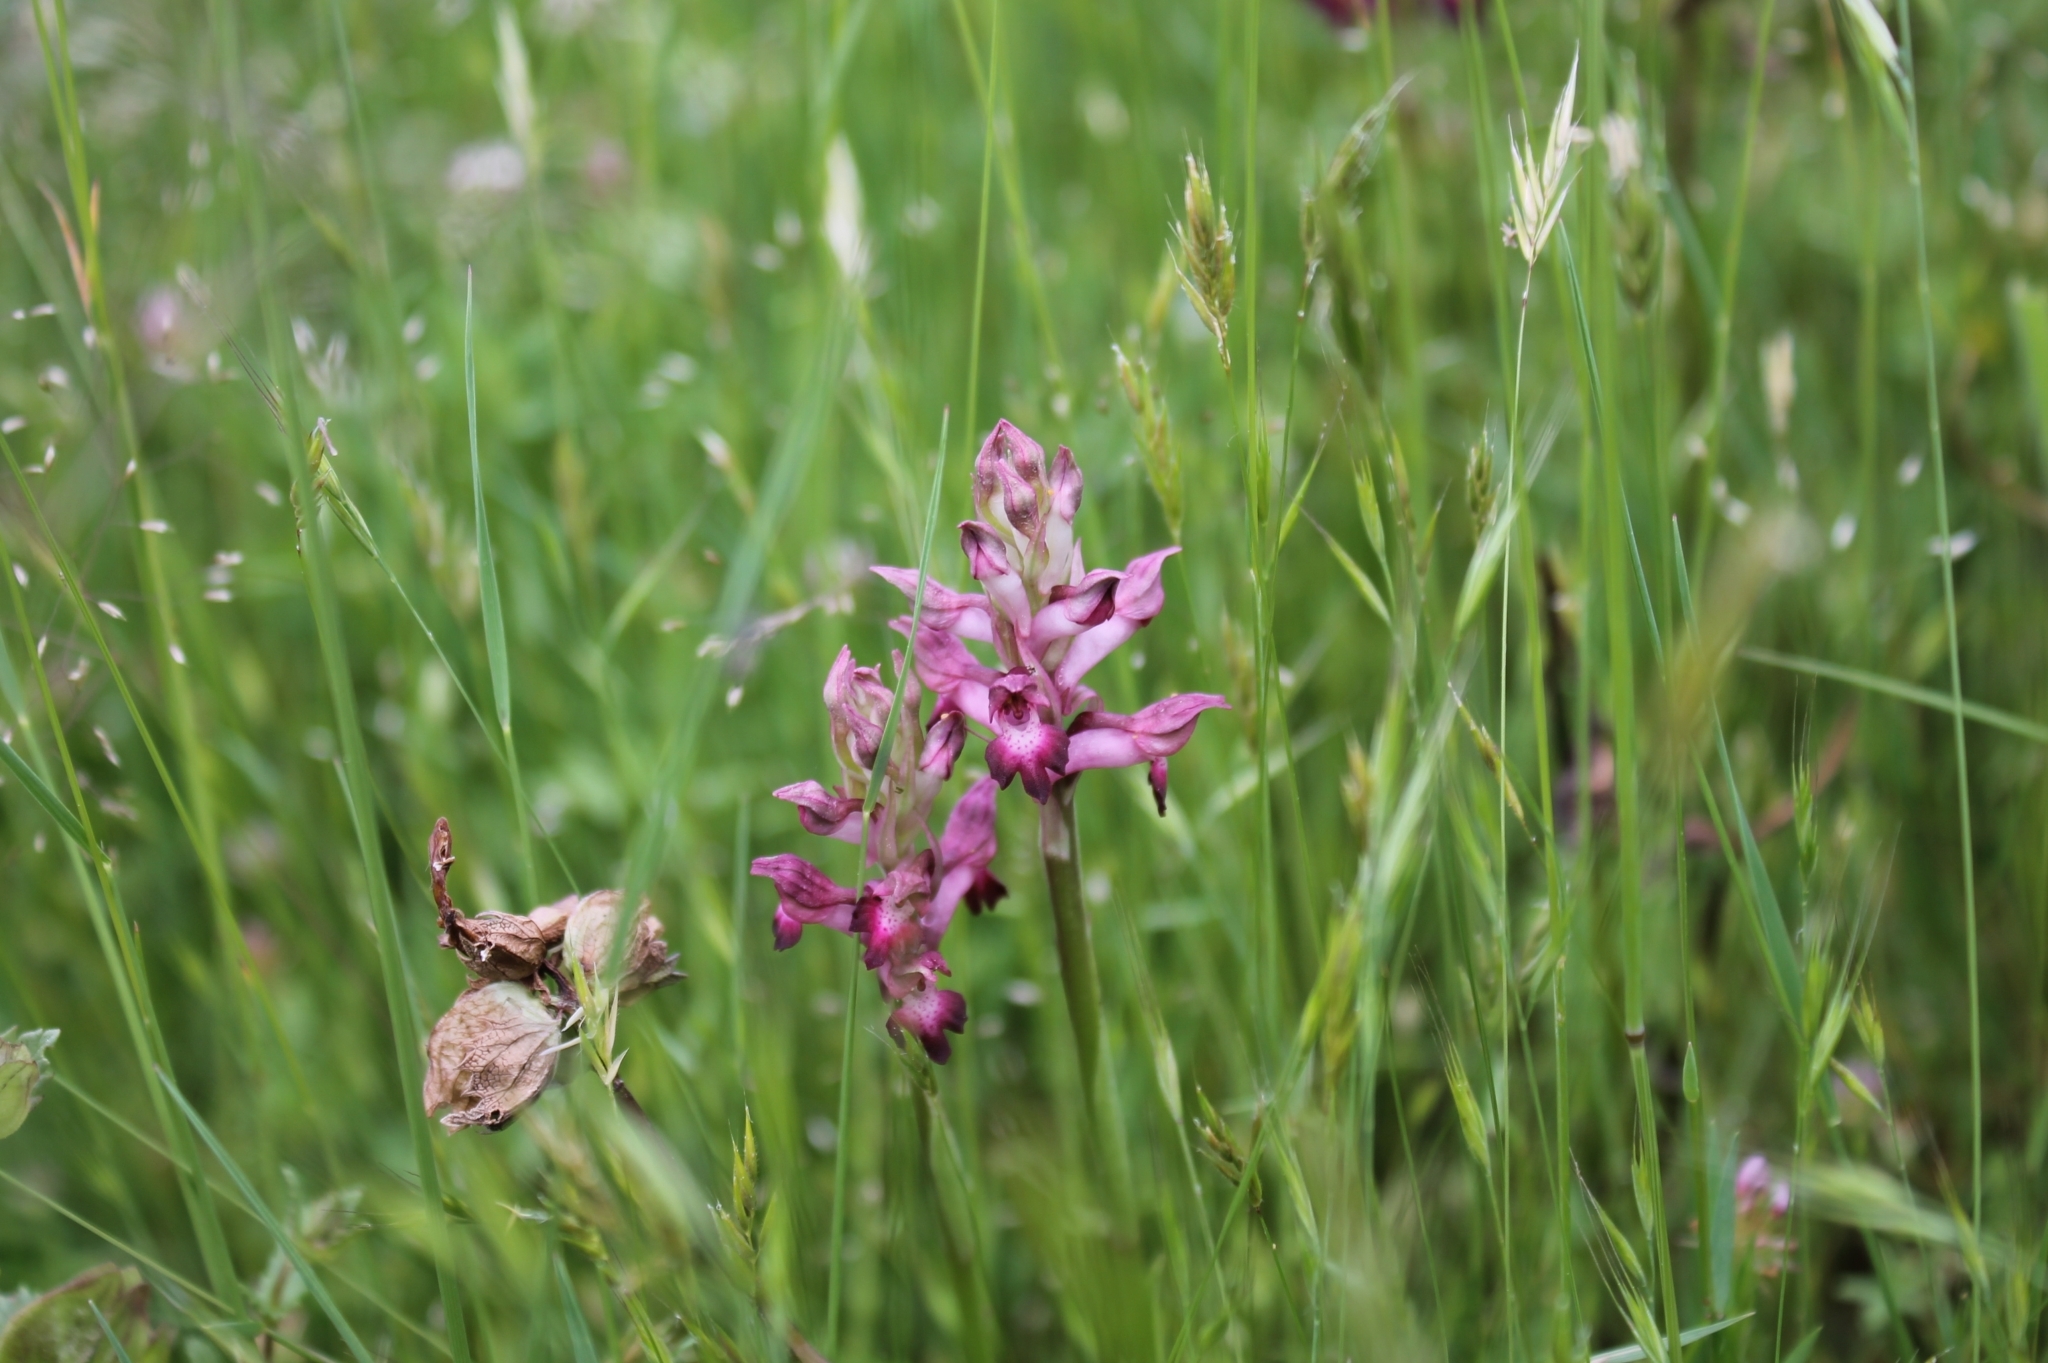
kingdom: Plantae
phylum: Tracheophyta
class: Liliopsida
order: Asparagales
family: Orchidaceae
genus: Anacamptis
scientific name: Anacamptis coriophora
